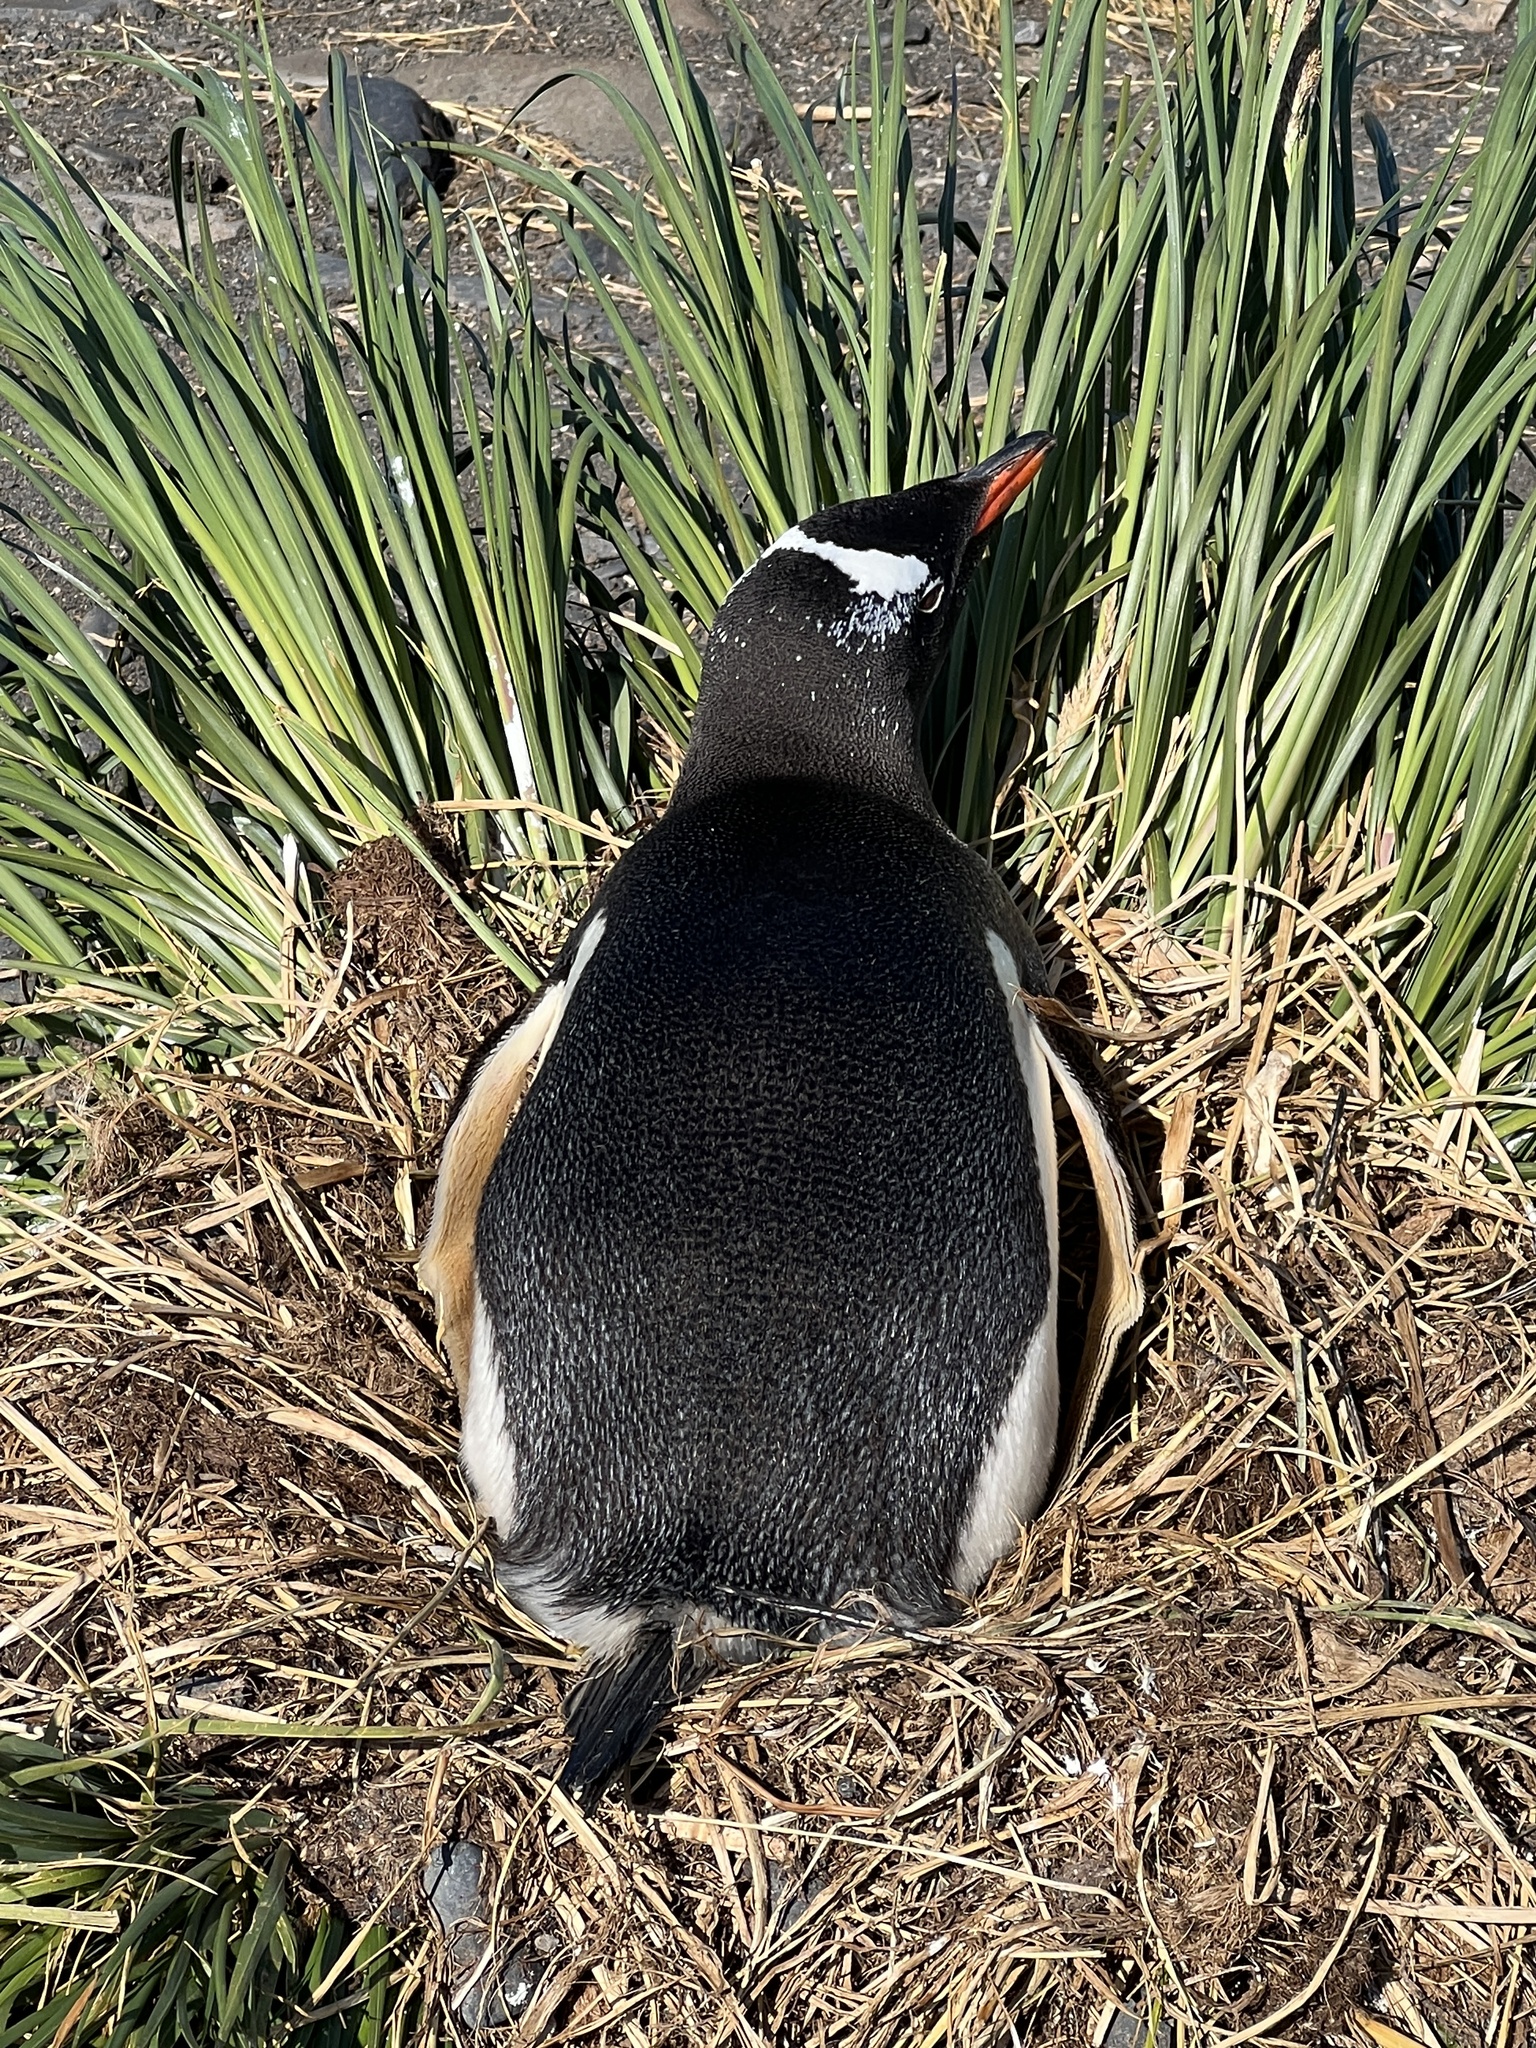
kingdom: Animalia
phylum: Chordata
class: Aves
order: Sphenisciformes
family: Spheniscidae
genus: Pygoscelis
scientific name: Pygoscelis papua
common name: Gentoo penguin
